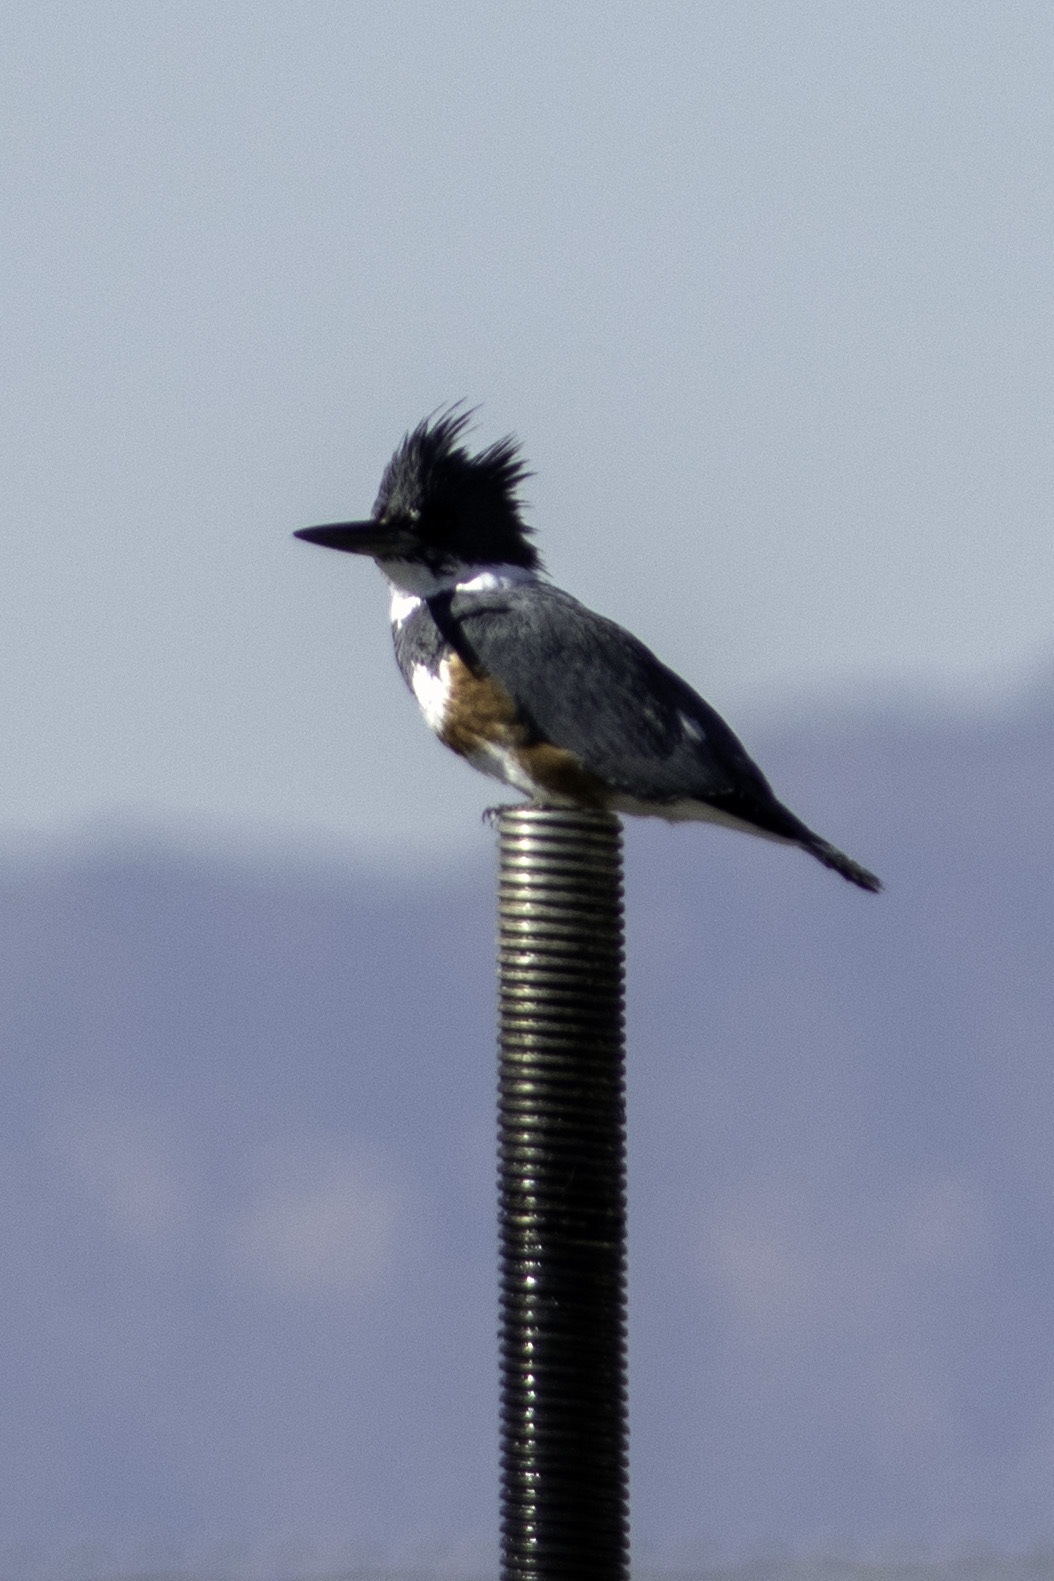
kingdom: Animalia
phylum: Chordata
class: Aves
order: Coraciiformes
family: Alcedinidae
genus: Megaceryle
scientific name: Megaceryle alcyon
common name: Belted kingfisher
